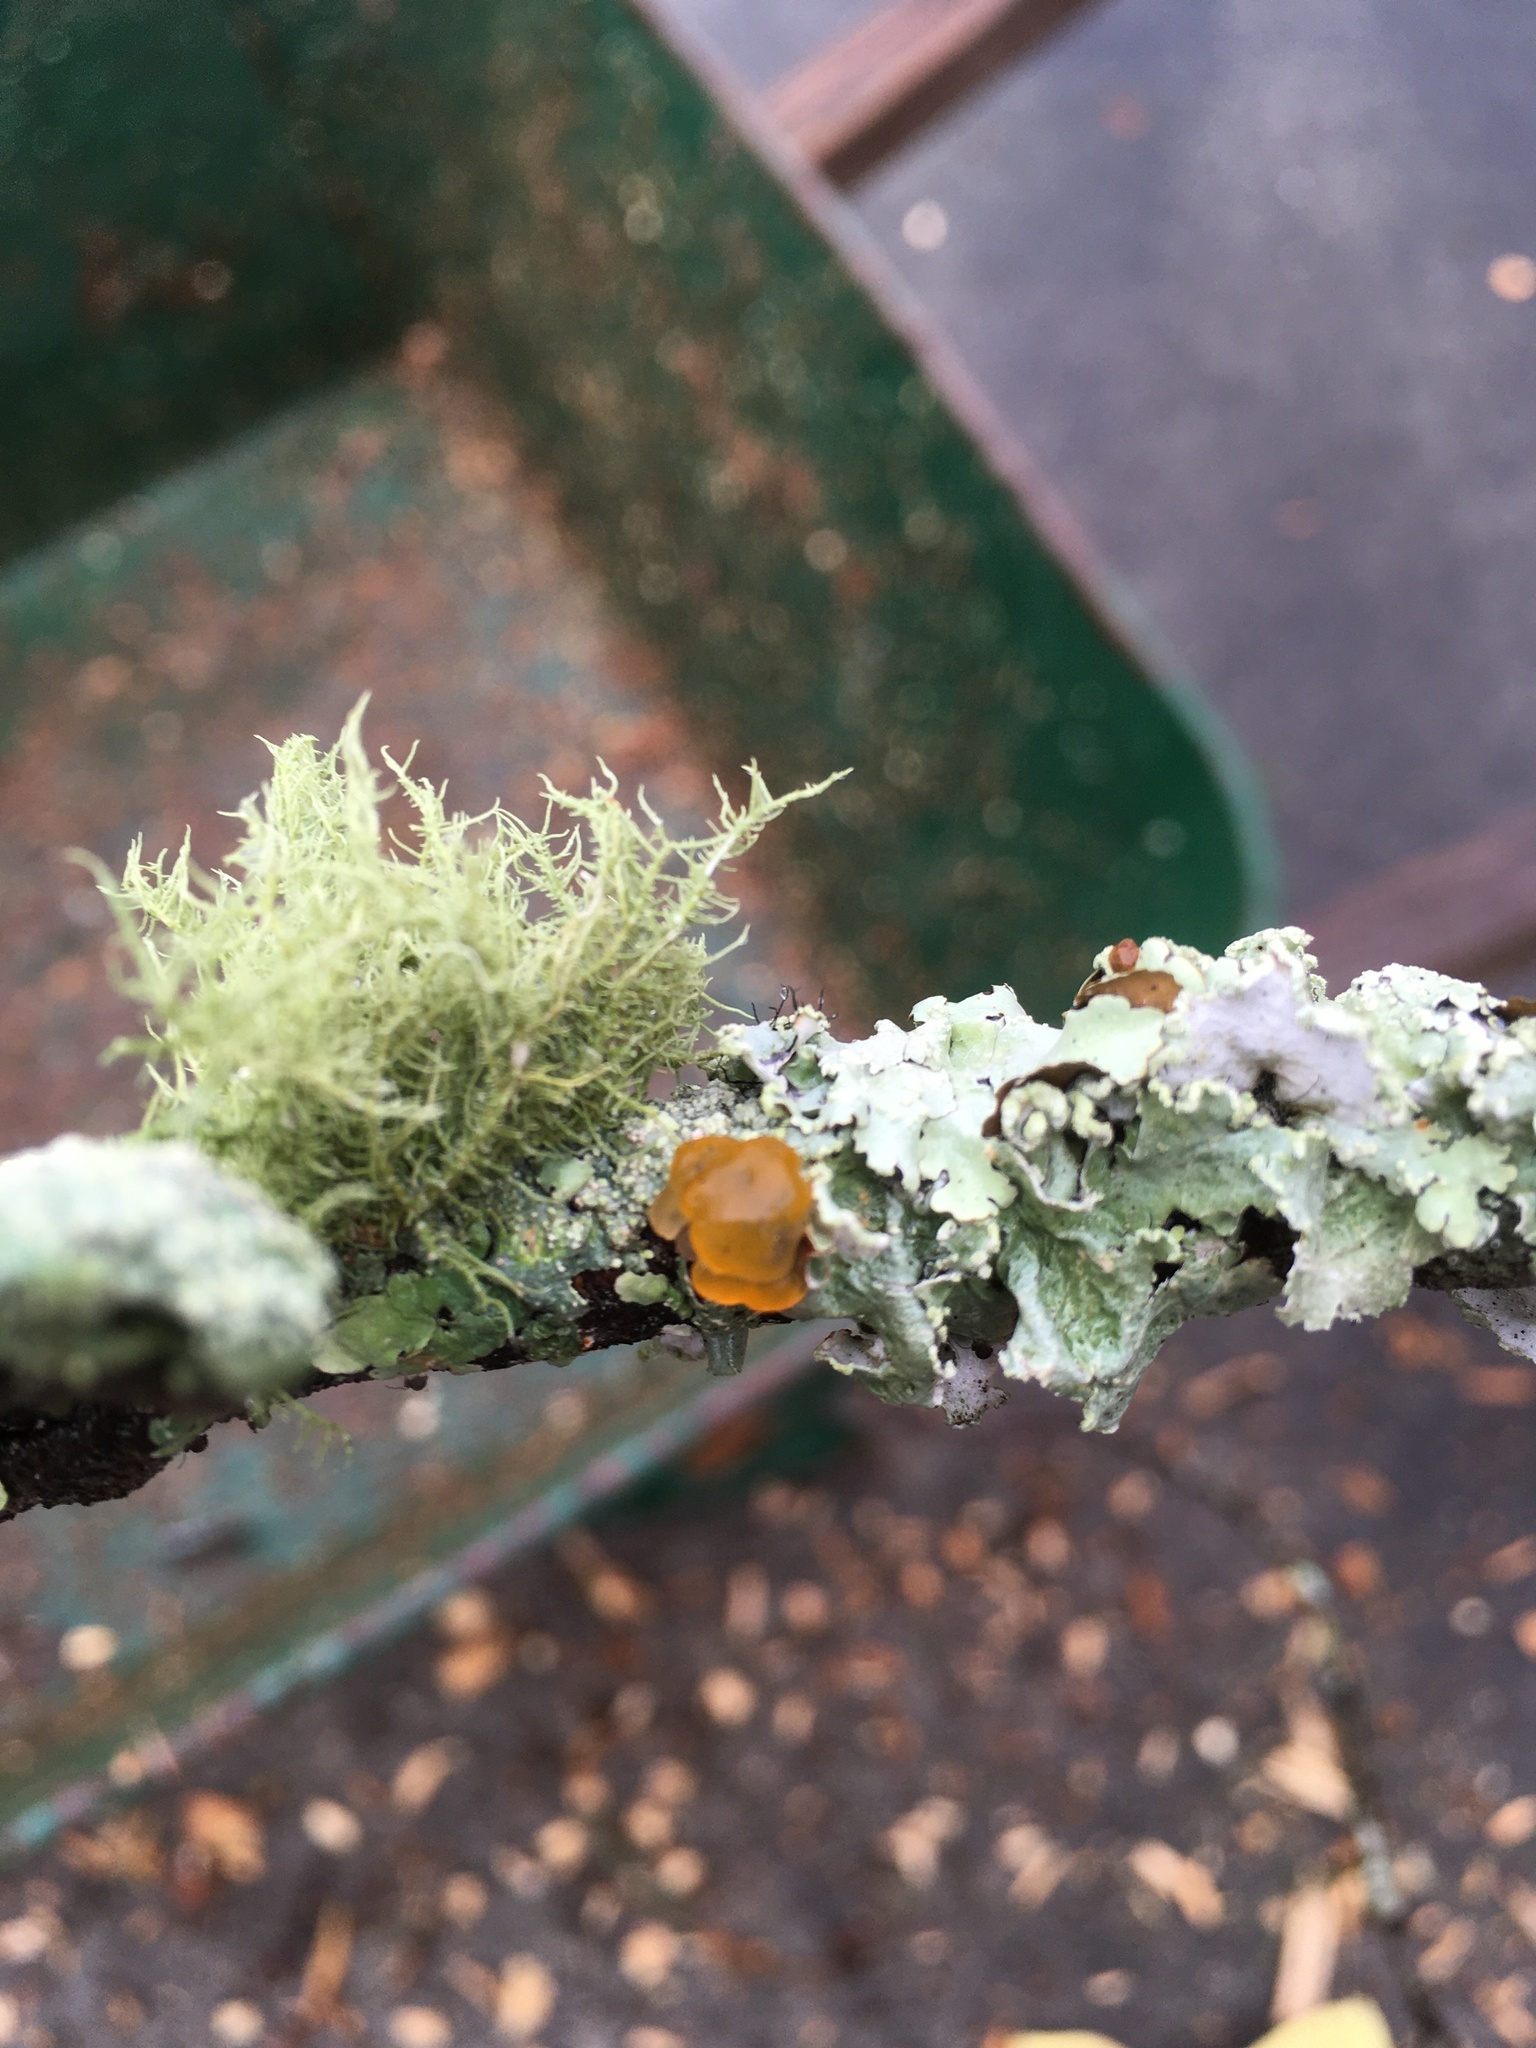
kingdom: Fungi
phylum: Basidiomycota
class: Tremellomycetes
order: Tremellales
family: Tremellaceae
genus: Tremella
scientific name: Tremella mesenterica
